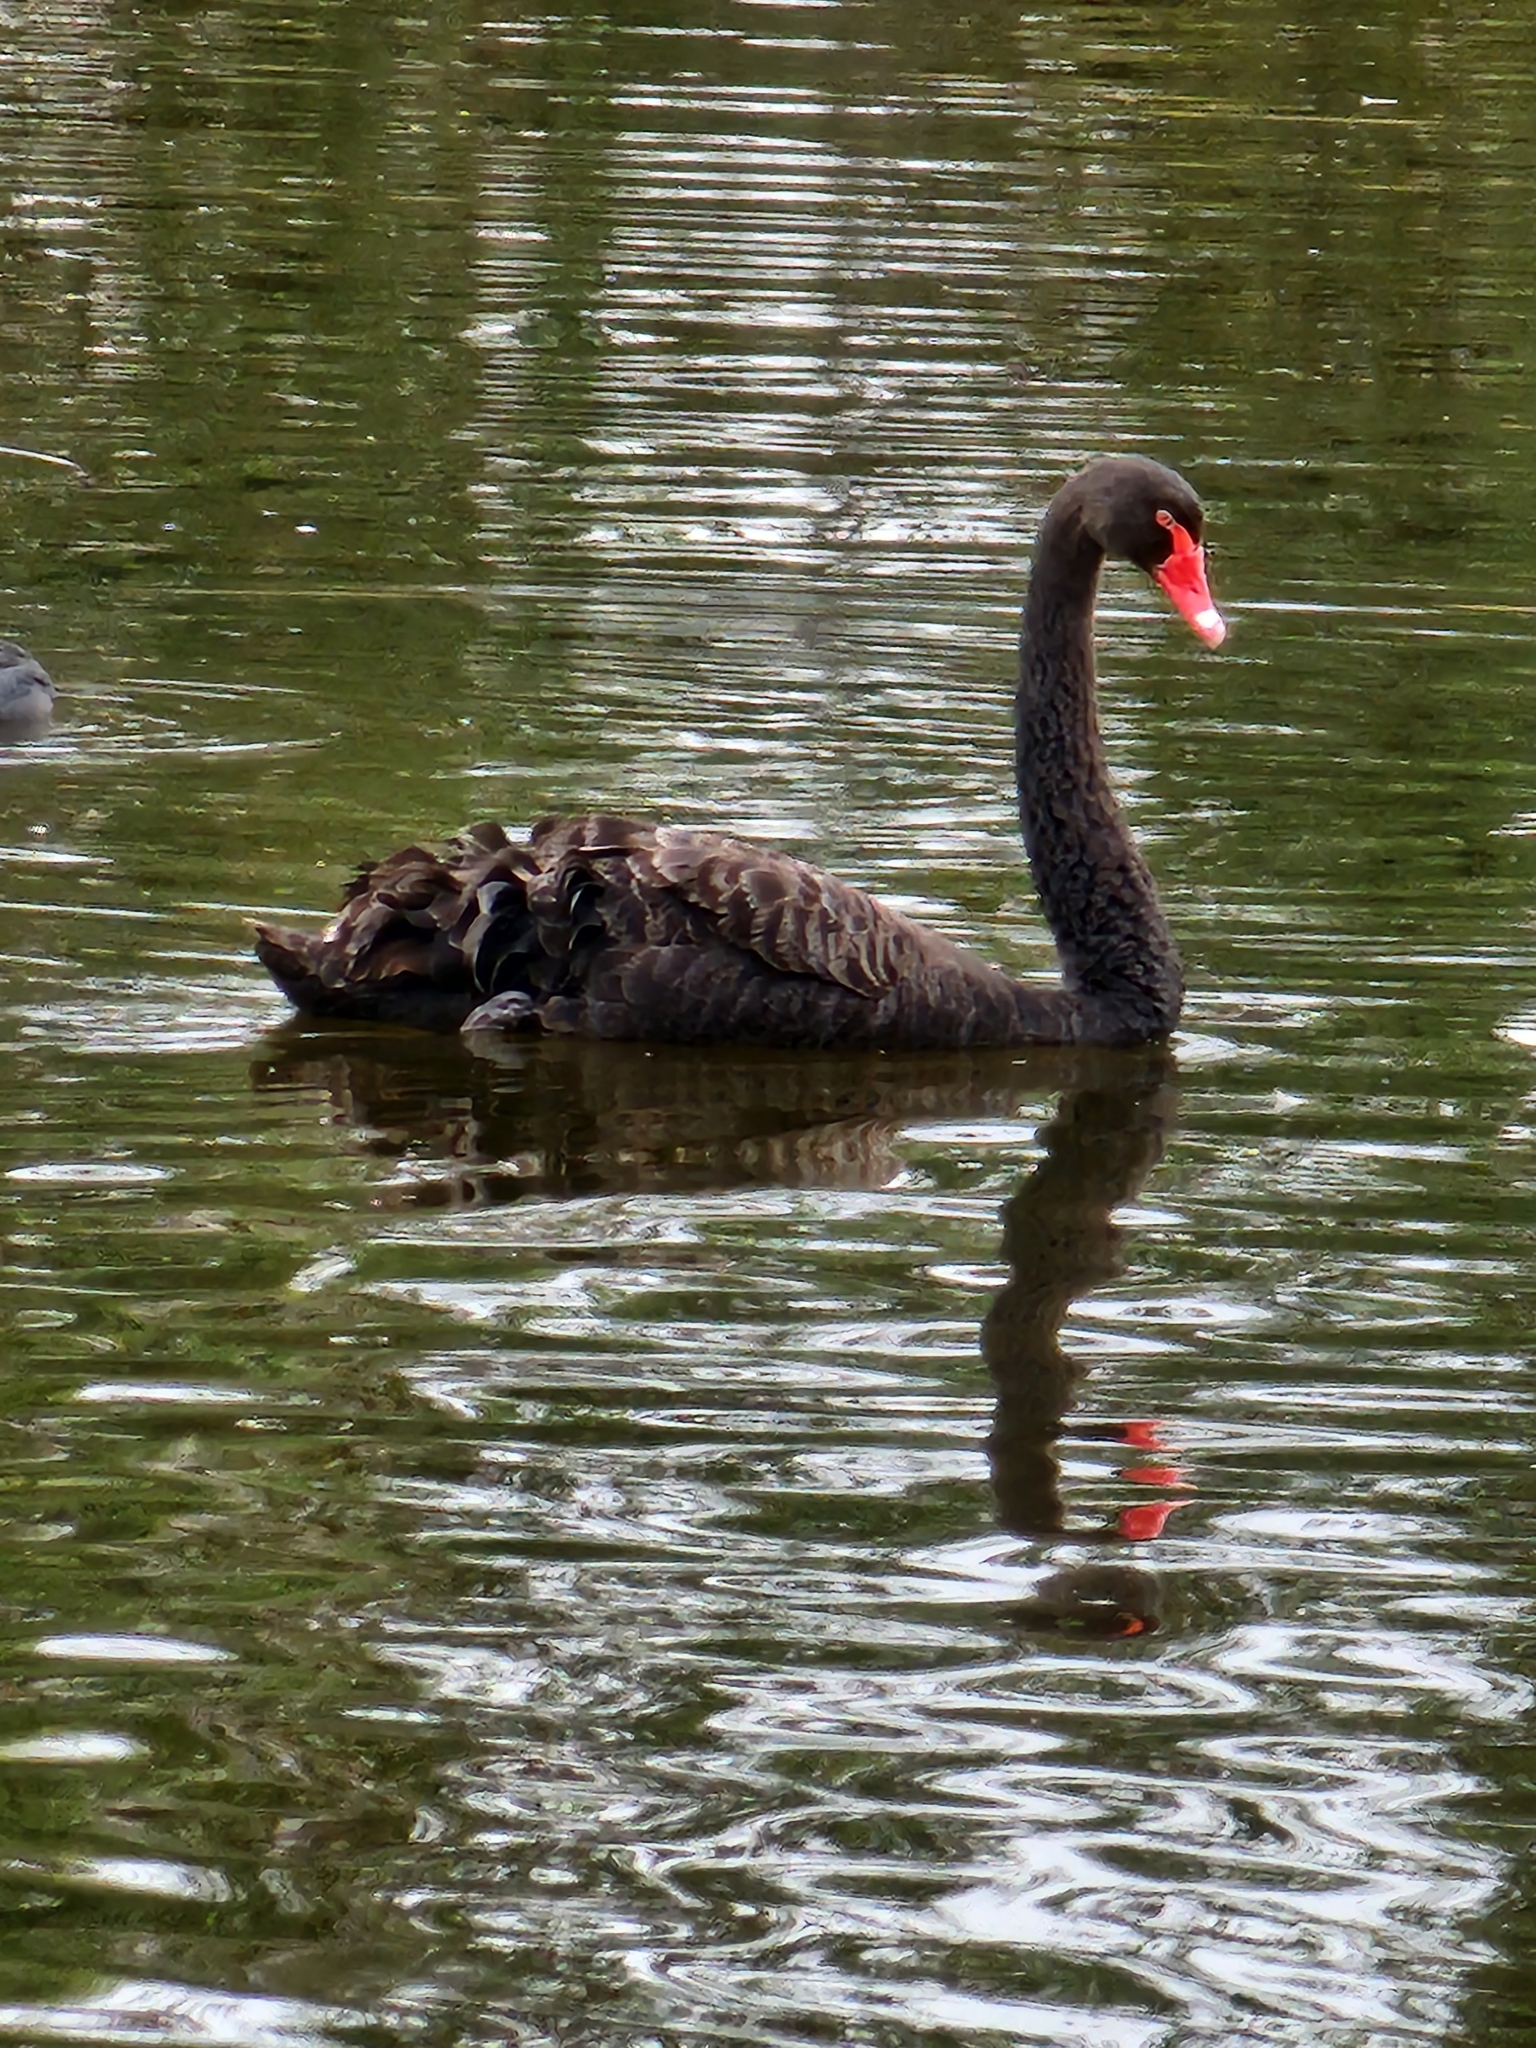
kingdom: Animalia
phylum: Chordata
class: Aves
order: Anseriformes
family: Anatidae
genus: Cygnus
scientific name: Cygnus atratus
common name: Black swan
